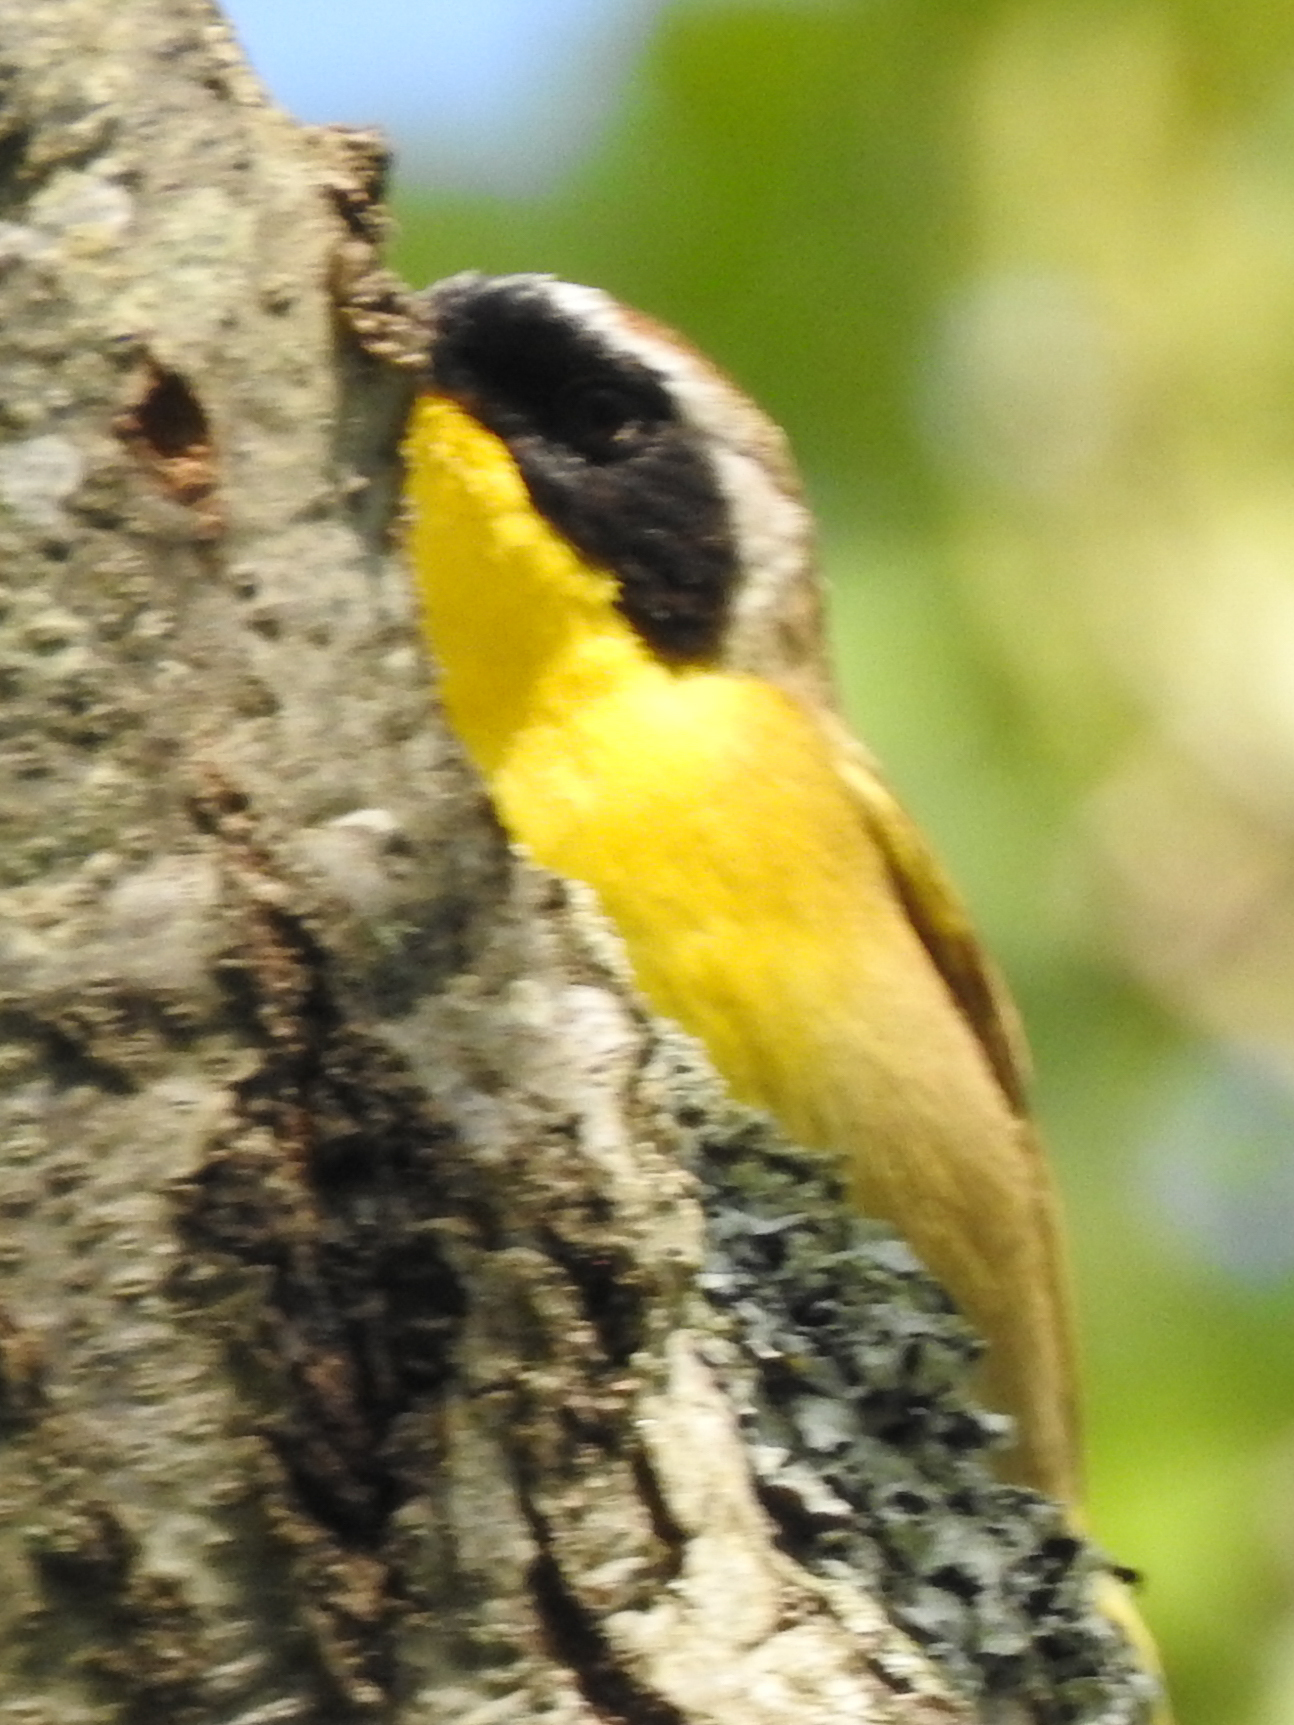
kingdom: Animalia
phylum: Chordata
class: Aves
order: Passeriformes
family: Parulidae
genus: Geothlypis
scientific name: Geothlypis trichas
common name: Common yellowthroat
